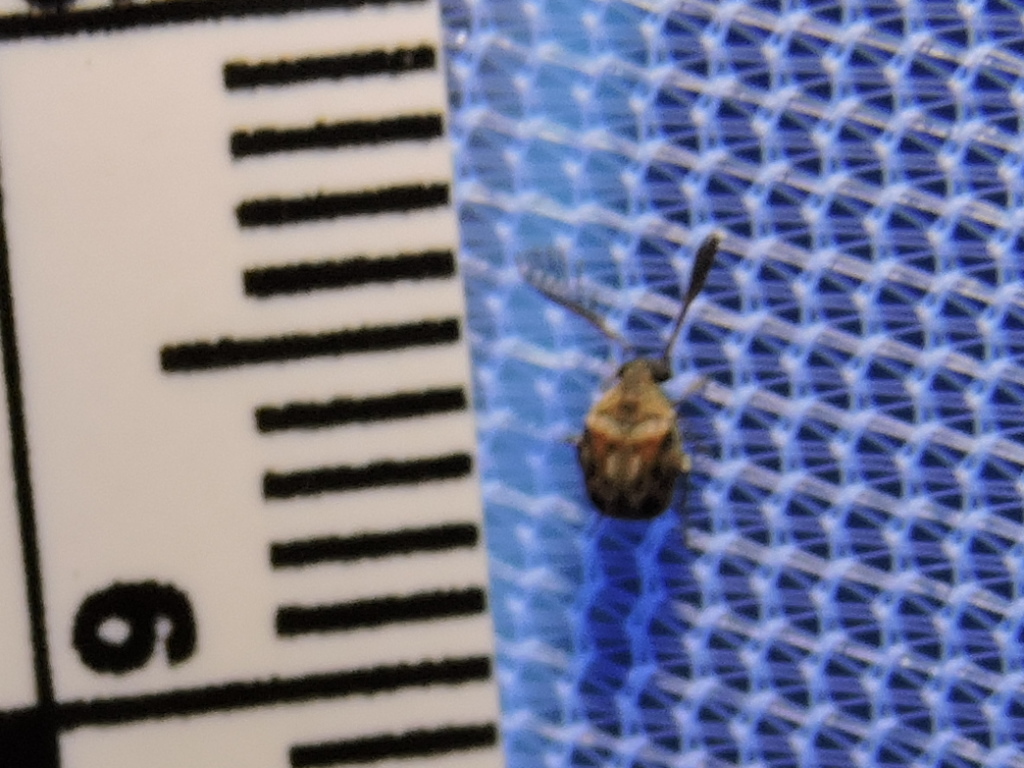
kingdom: Animalia
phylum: Arthropoda
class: Insecta
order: Coleoptera
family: Chrysomelidae
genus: Megacerus
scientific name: Megacerus cubiculus
